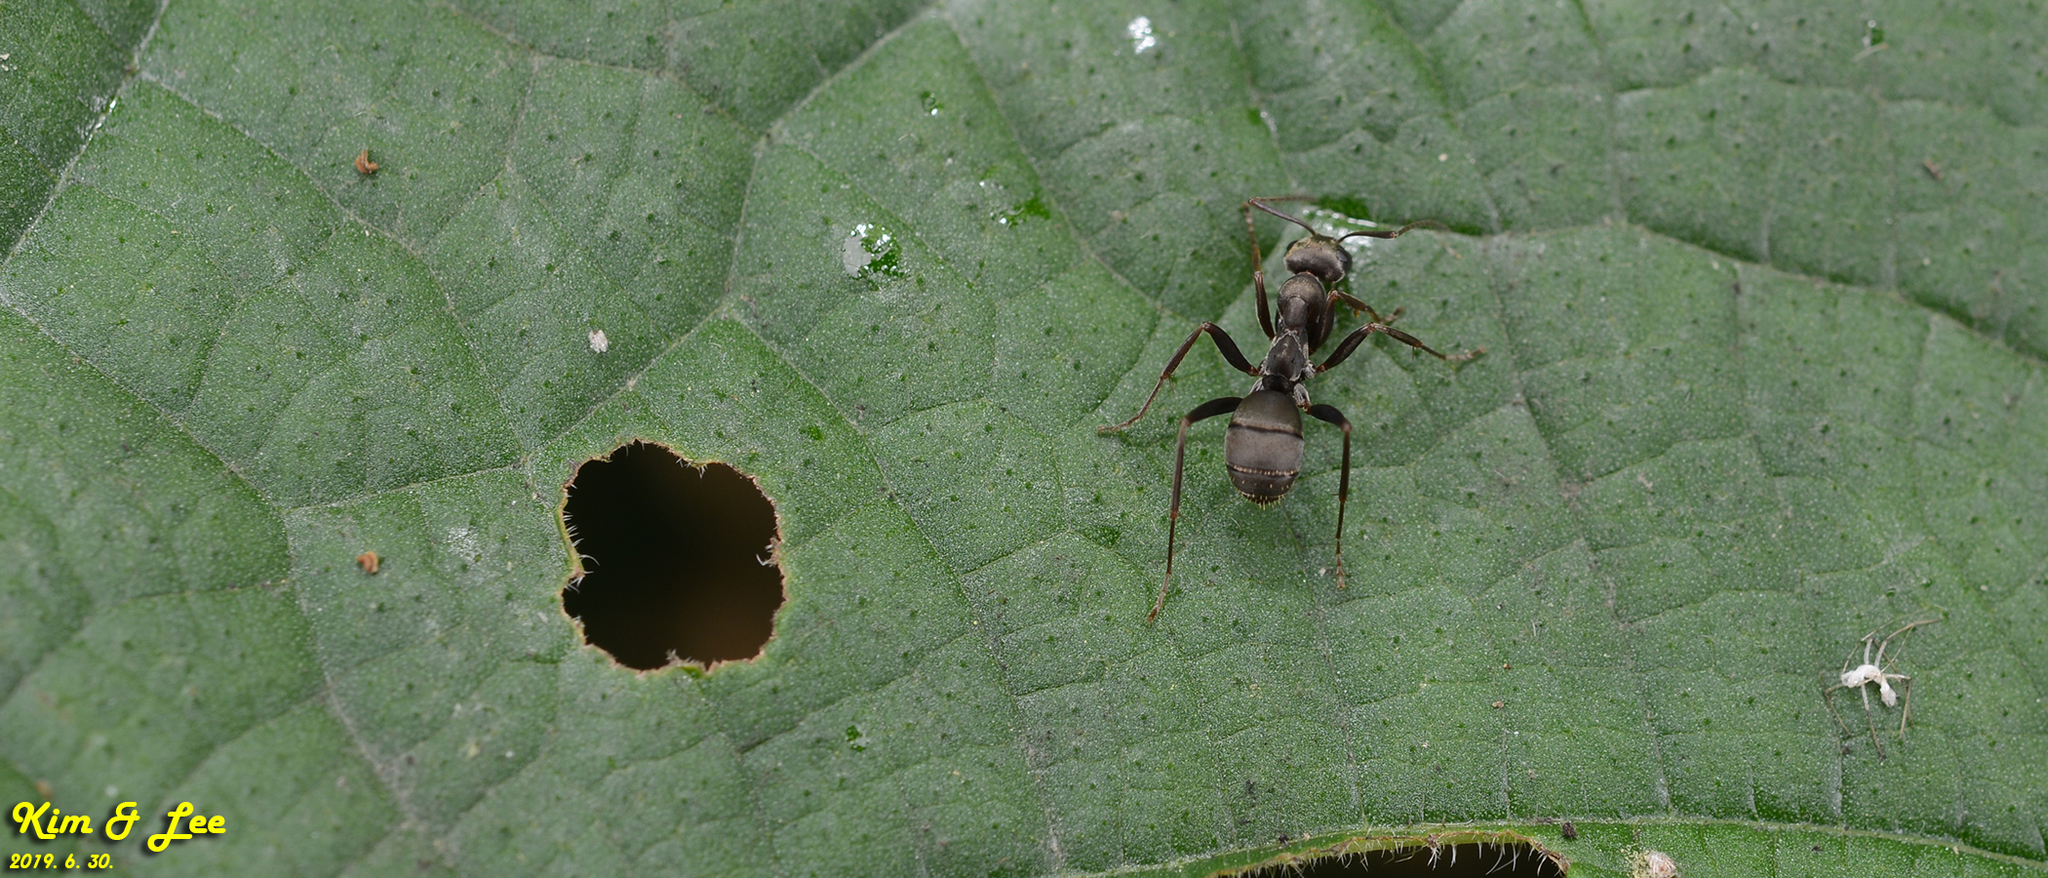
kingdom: Animalia
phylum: Arthropoda
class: Insecta
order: Hymenoptera
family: Formicidae
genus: Formica
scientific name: Formica japonica
